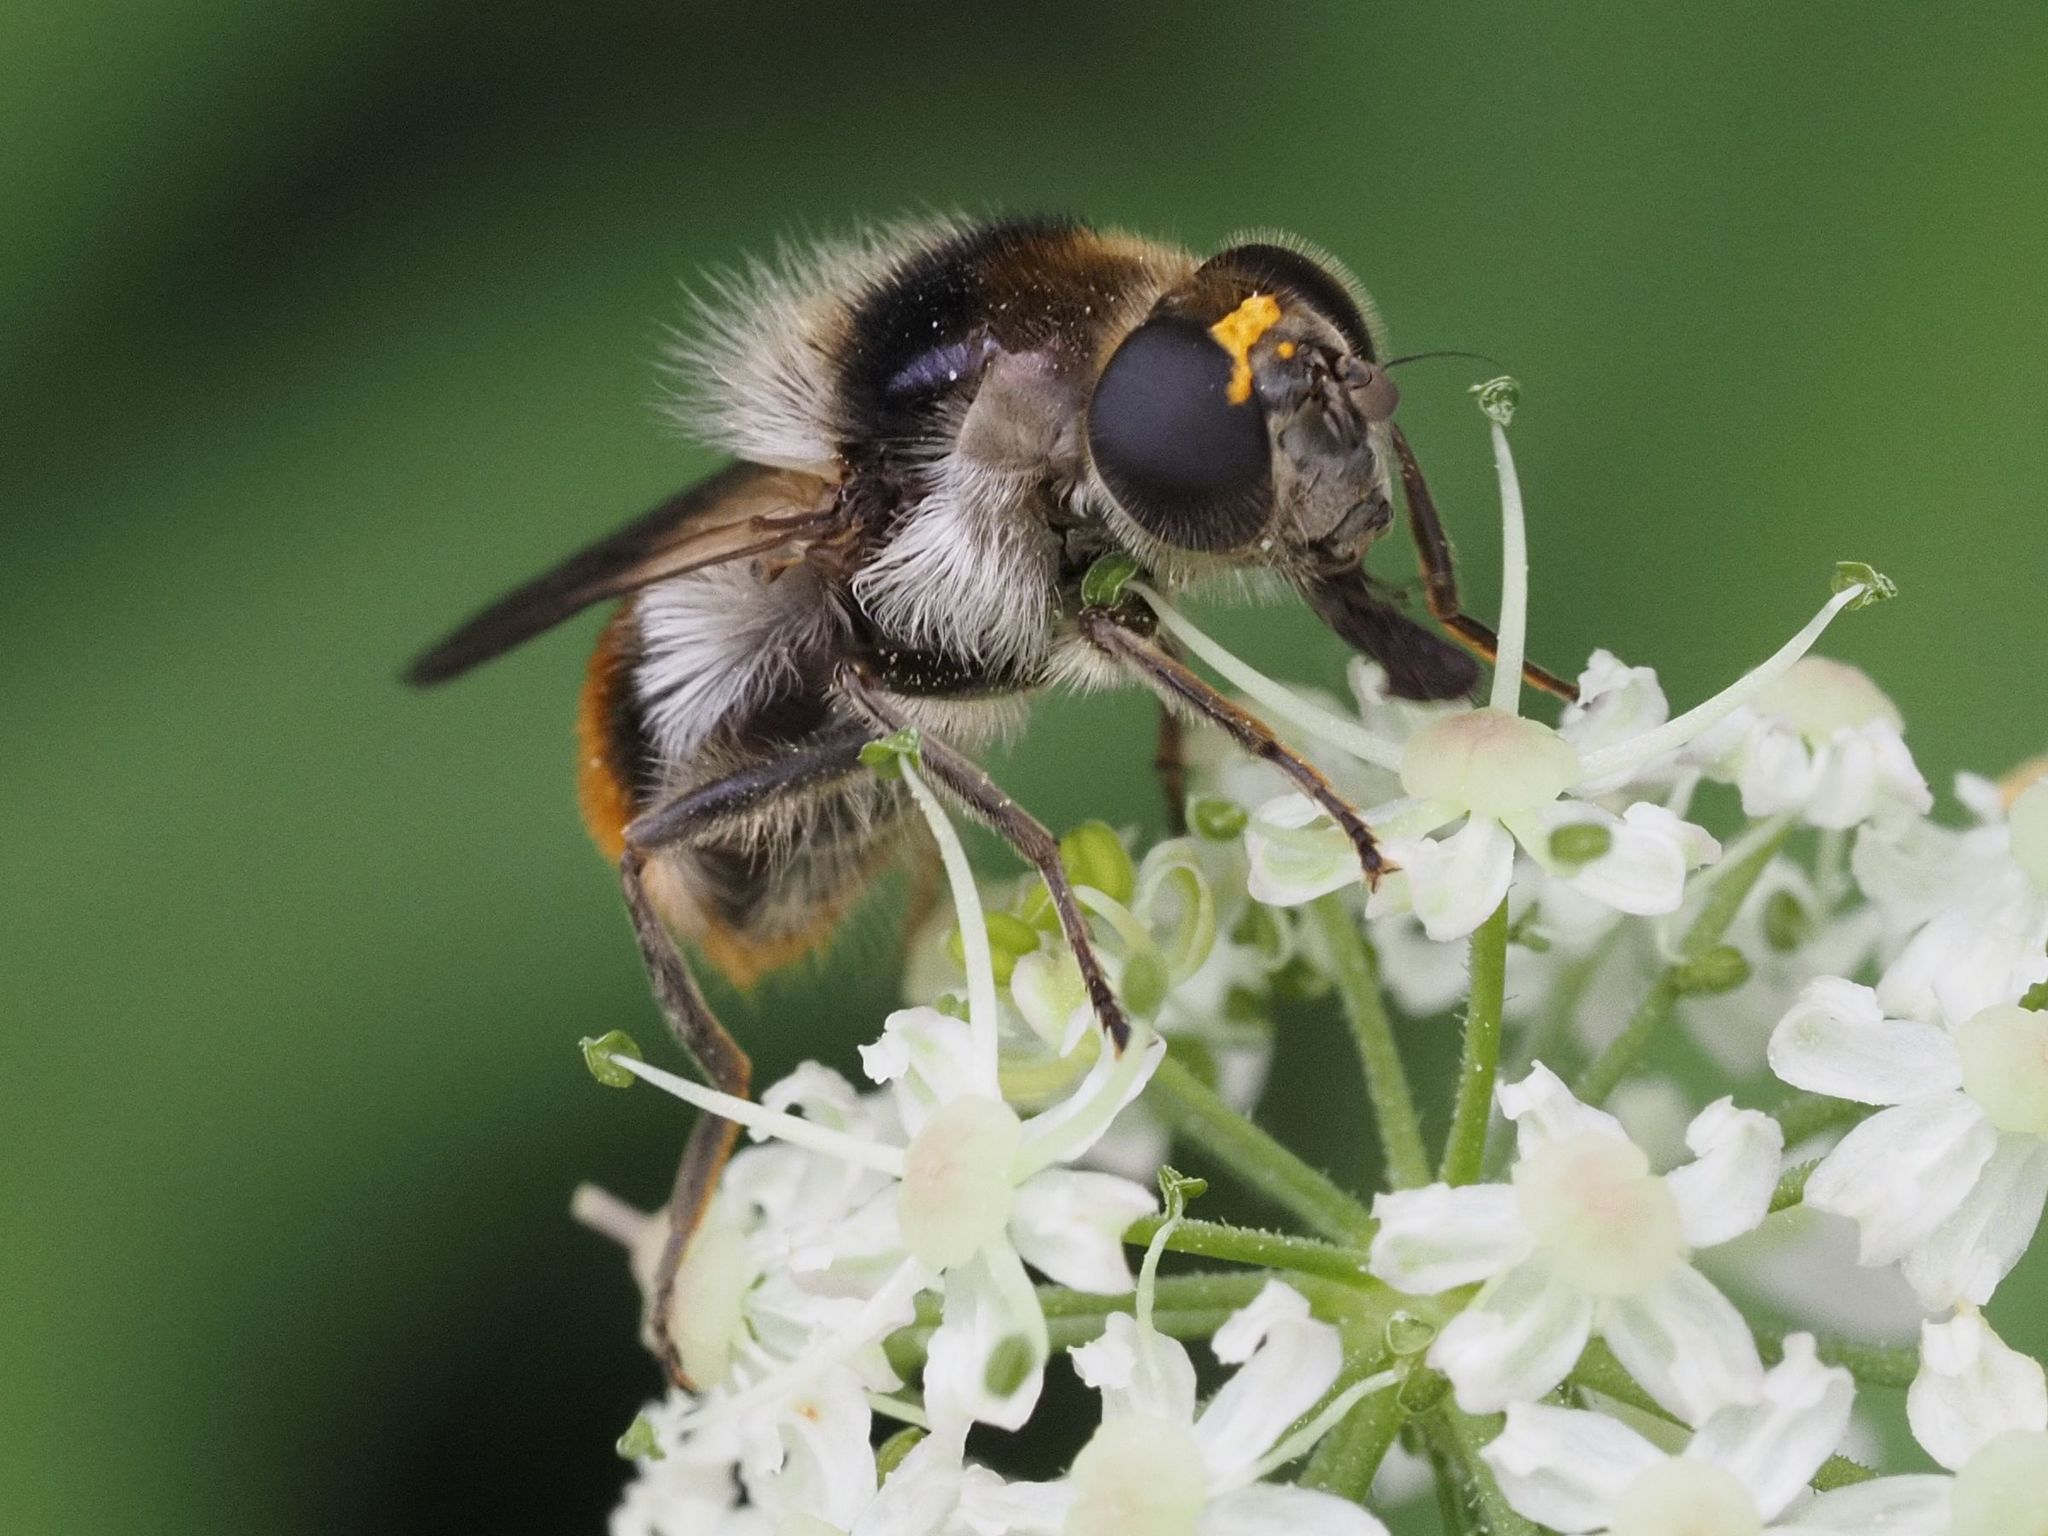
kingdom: Animalia
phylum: Arthropoda
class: Insecta
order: Diptera
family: Syrphidae
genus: Cheilosia
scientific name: Cheilosia illustrata
